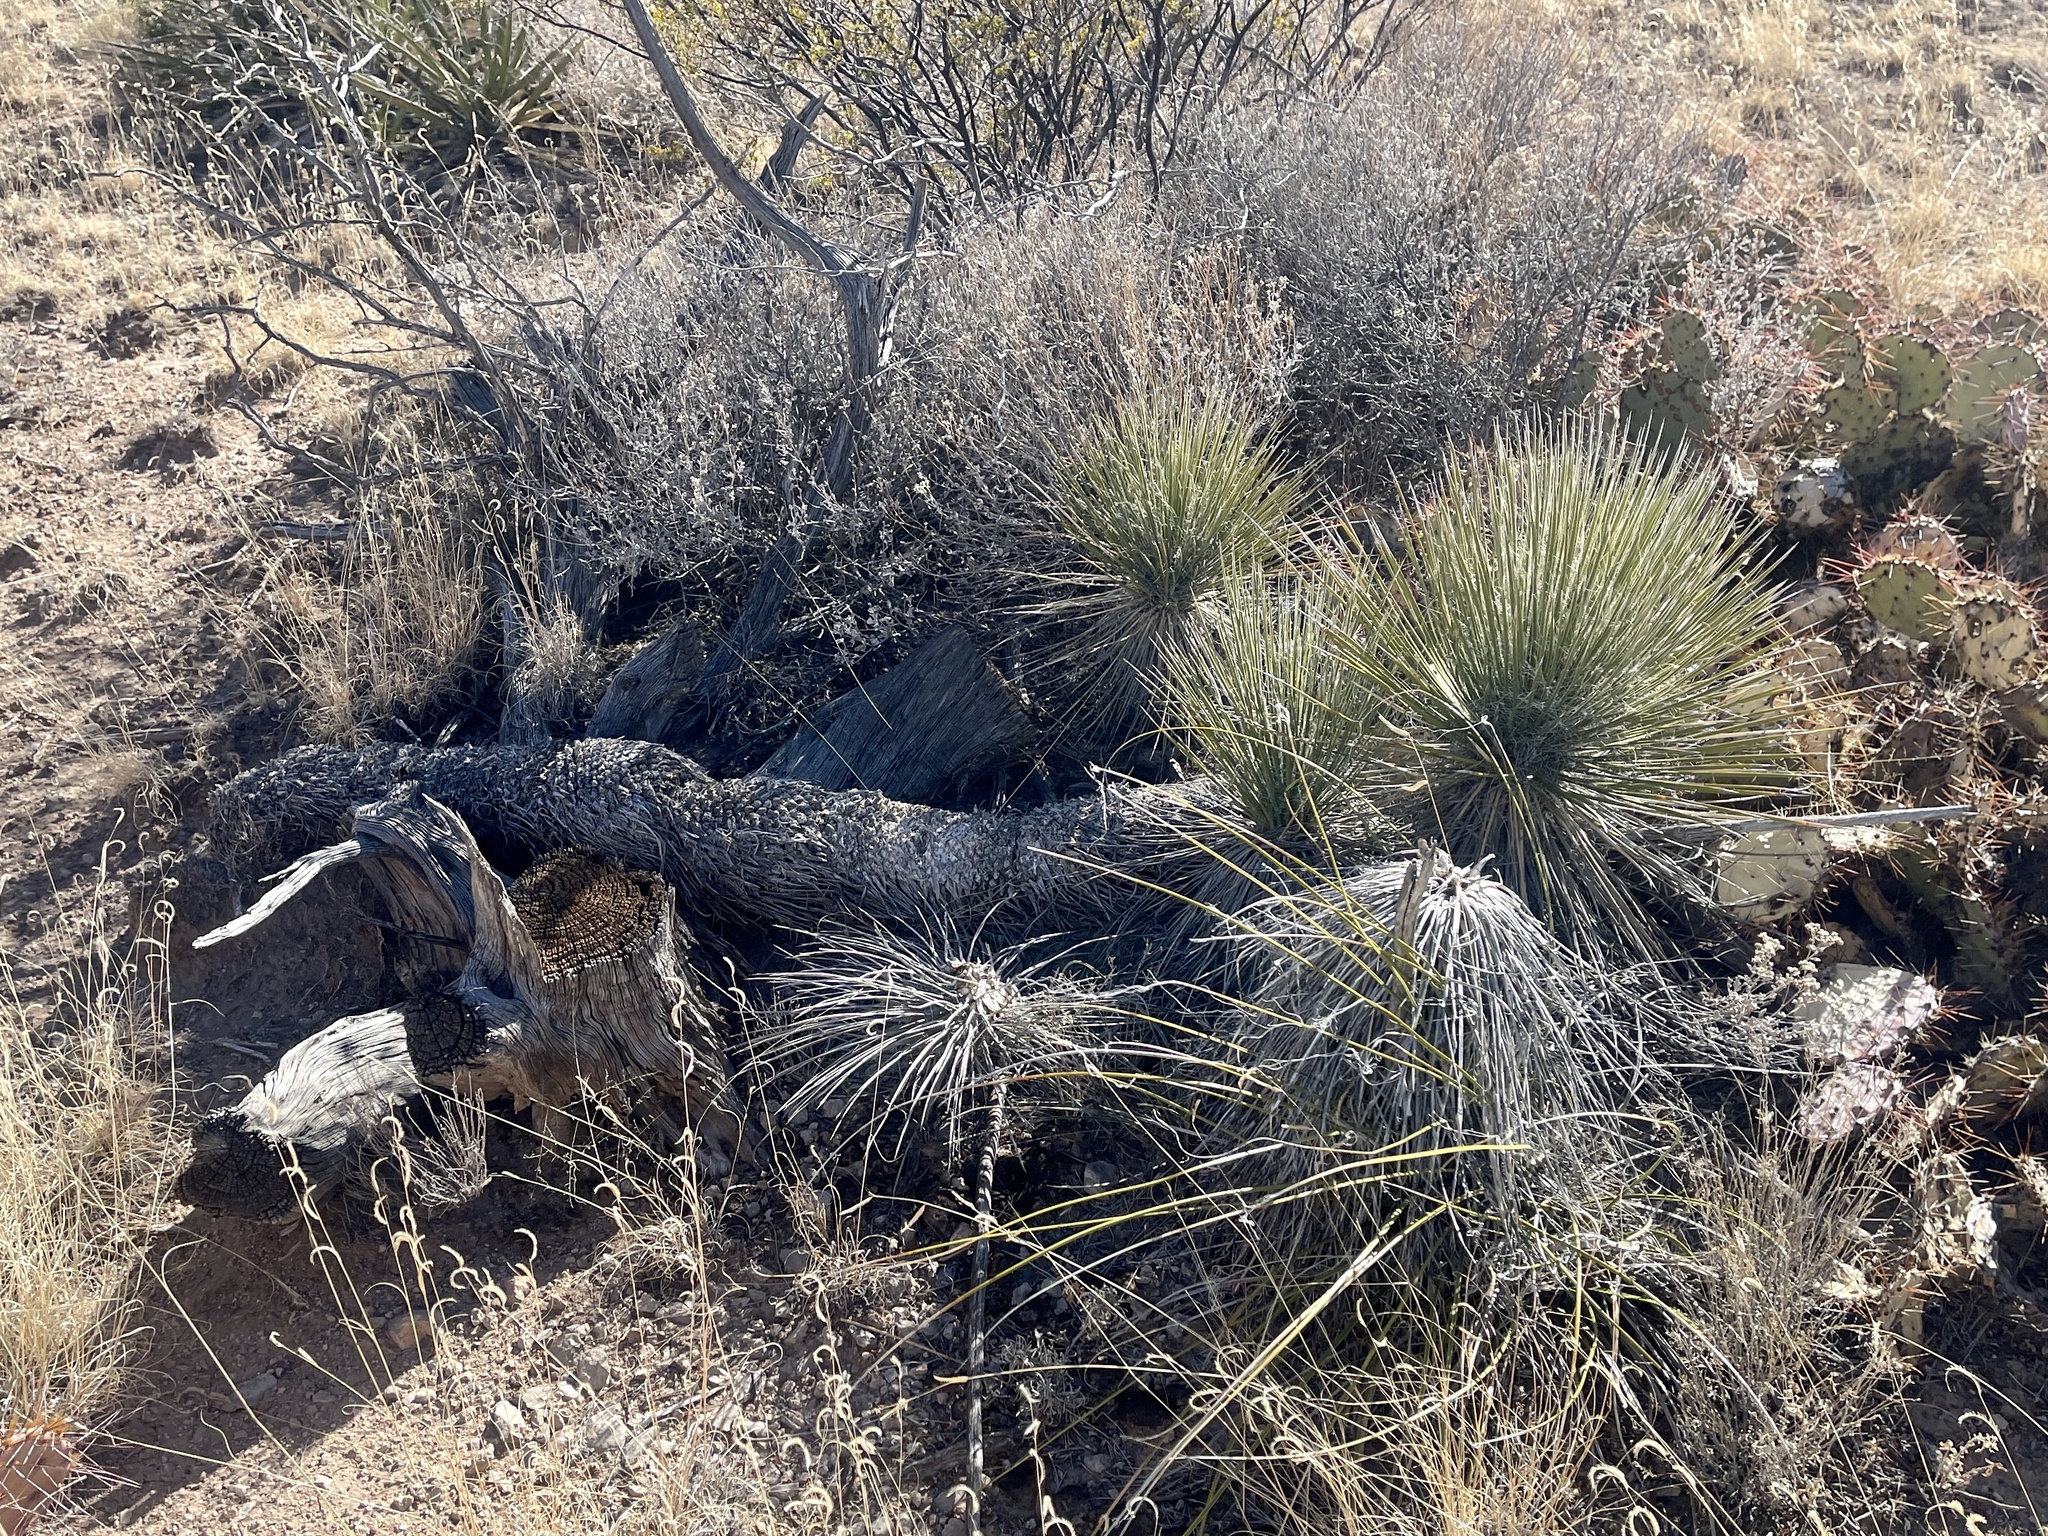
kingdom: Plantae
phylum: Tracheophyta
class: Liliopsida
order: Asparagales
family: Asparagaceae
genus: Yucca
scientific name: Yucca elata
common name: Palmella
